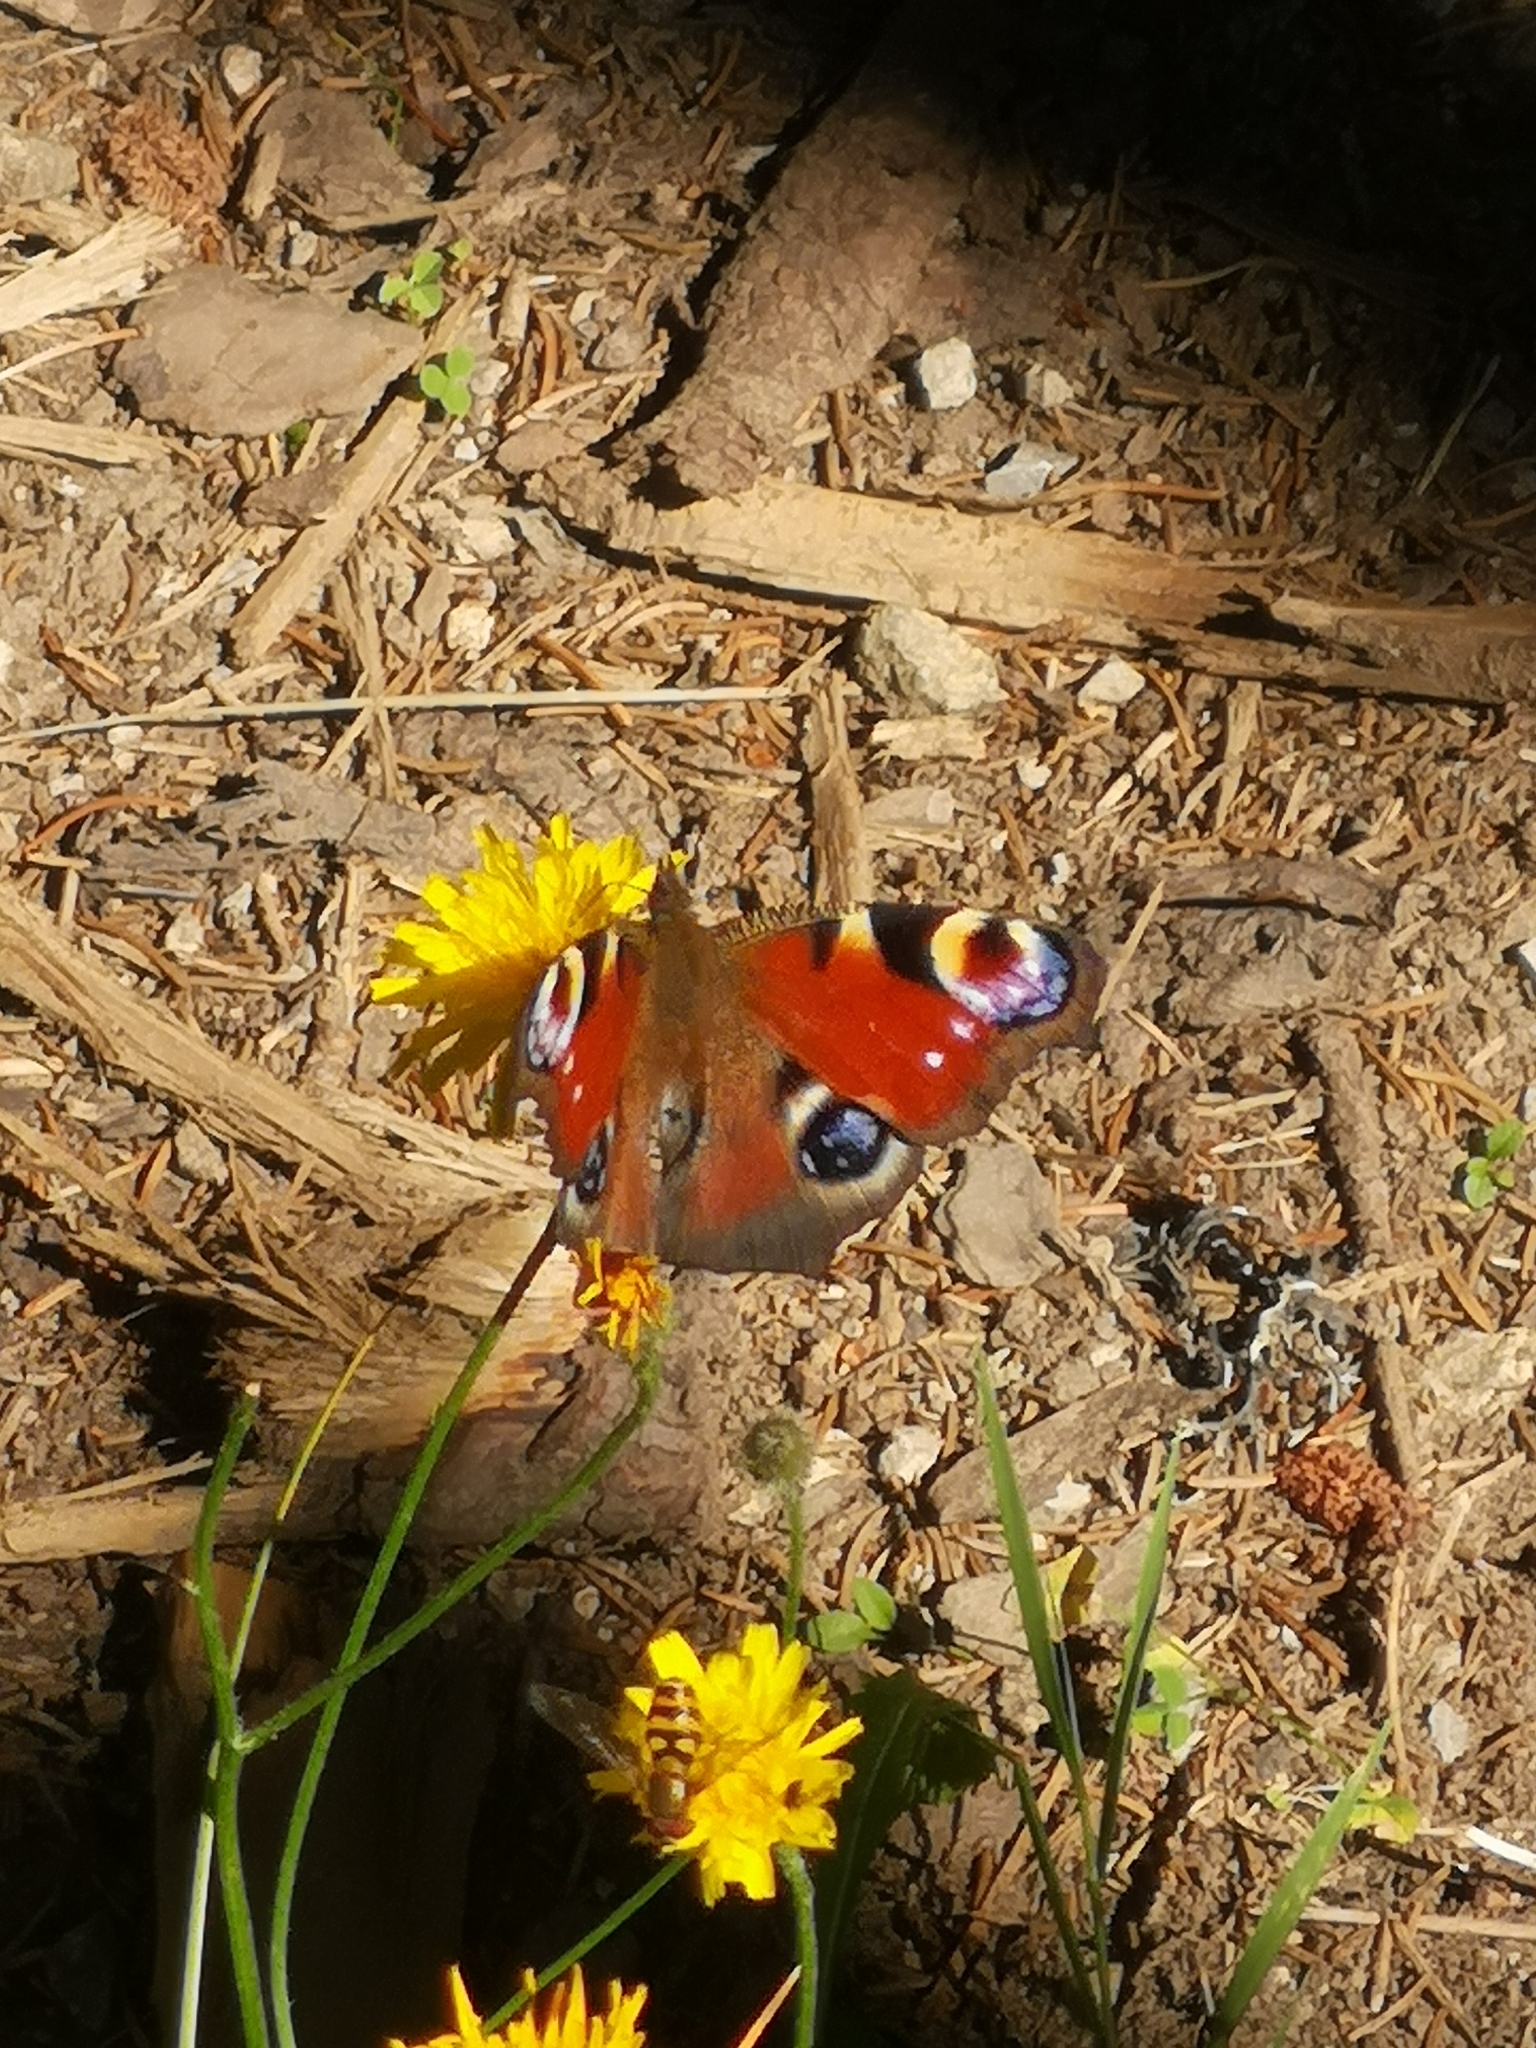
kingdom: Animalia
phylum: Arthropoda
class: Insecta
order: Lepidoptera
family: Nymphalidae
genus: Aglais
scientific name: Aglais io
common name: Peacock
